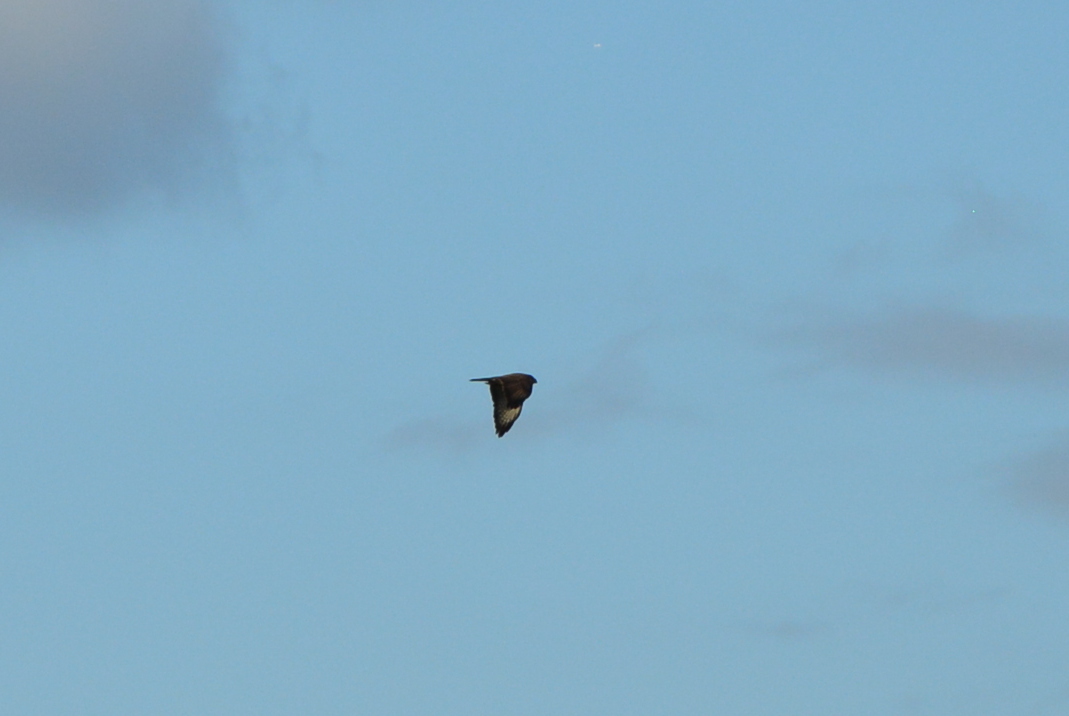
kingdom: Animalia
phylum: Chordata
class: Aves
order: Accipitriformes
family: Accipitridae
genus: Buteo
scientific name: Buteo buteo
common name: Common buzzard
